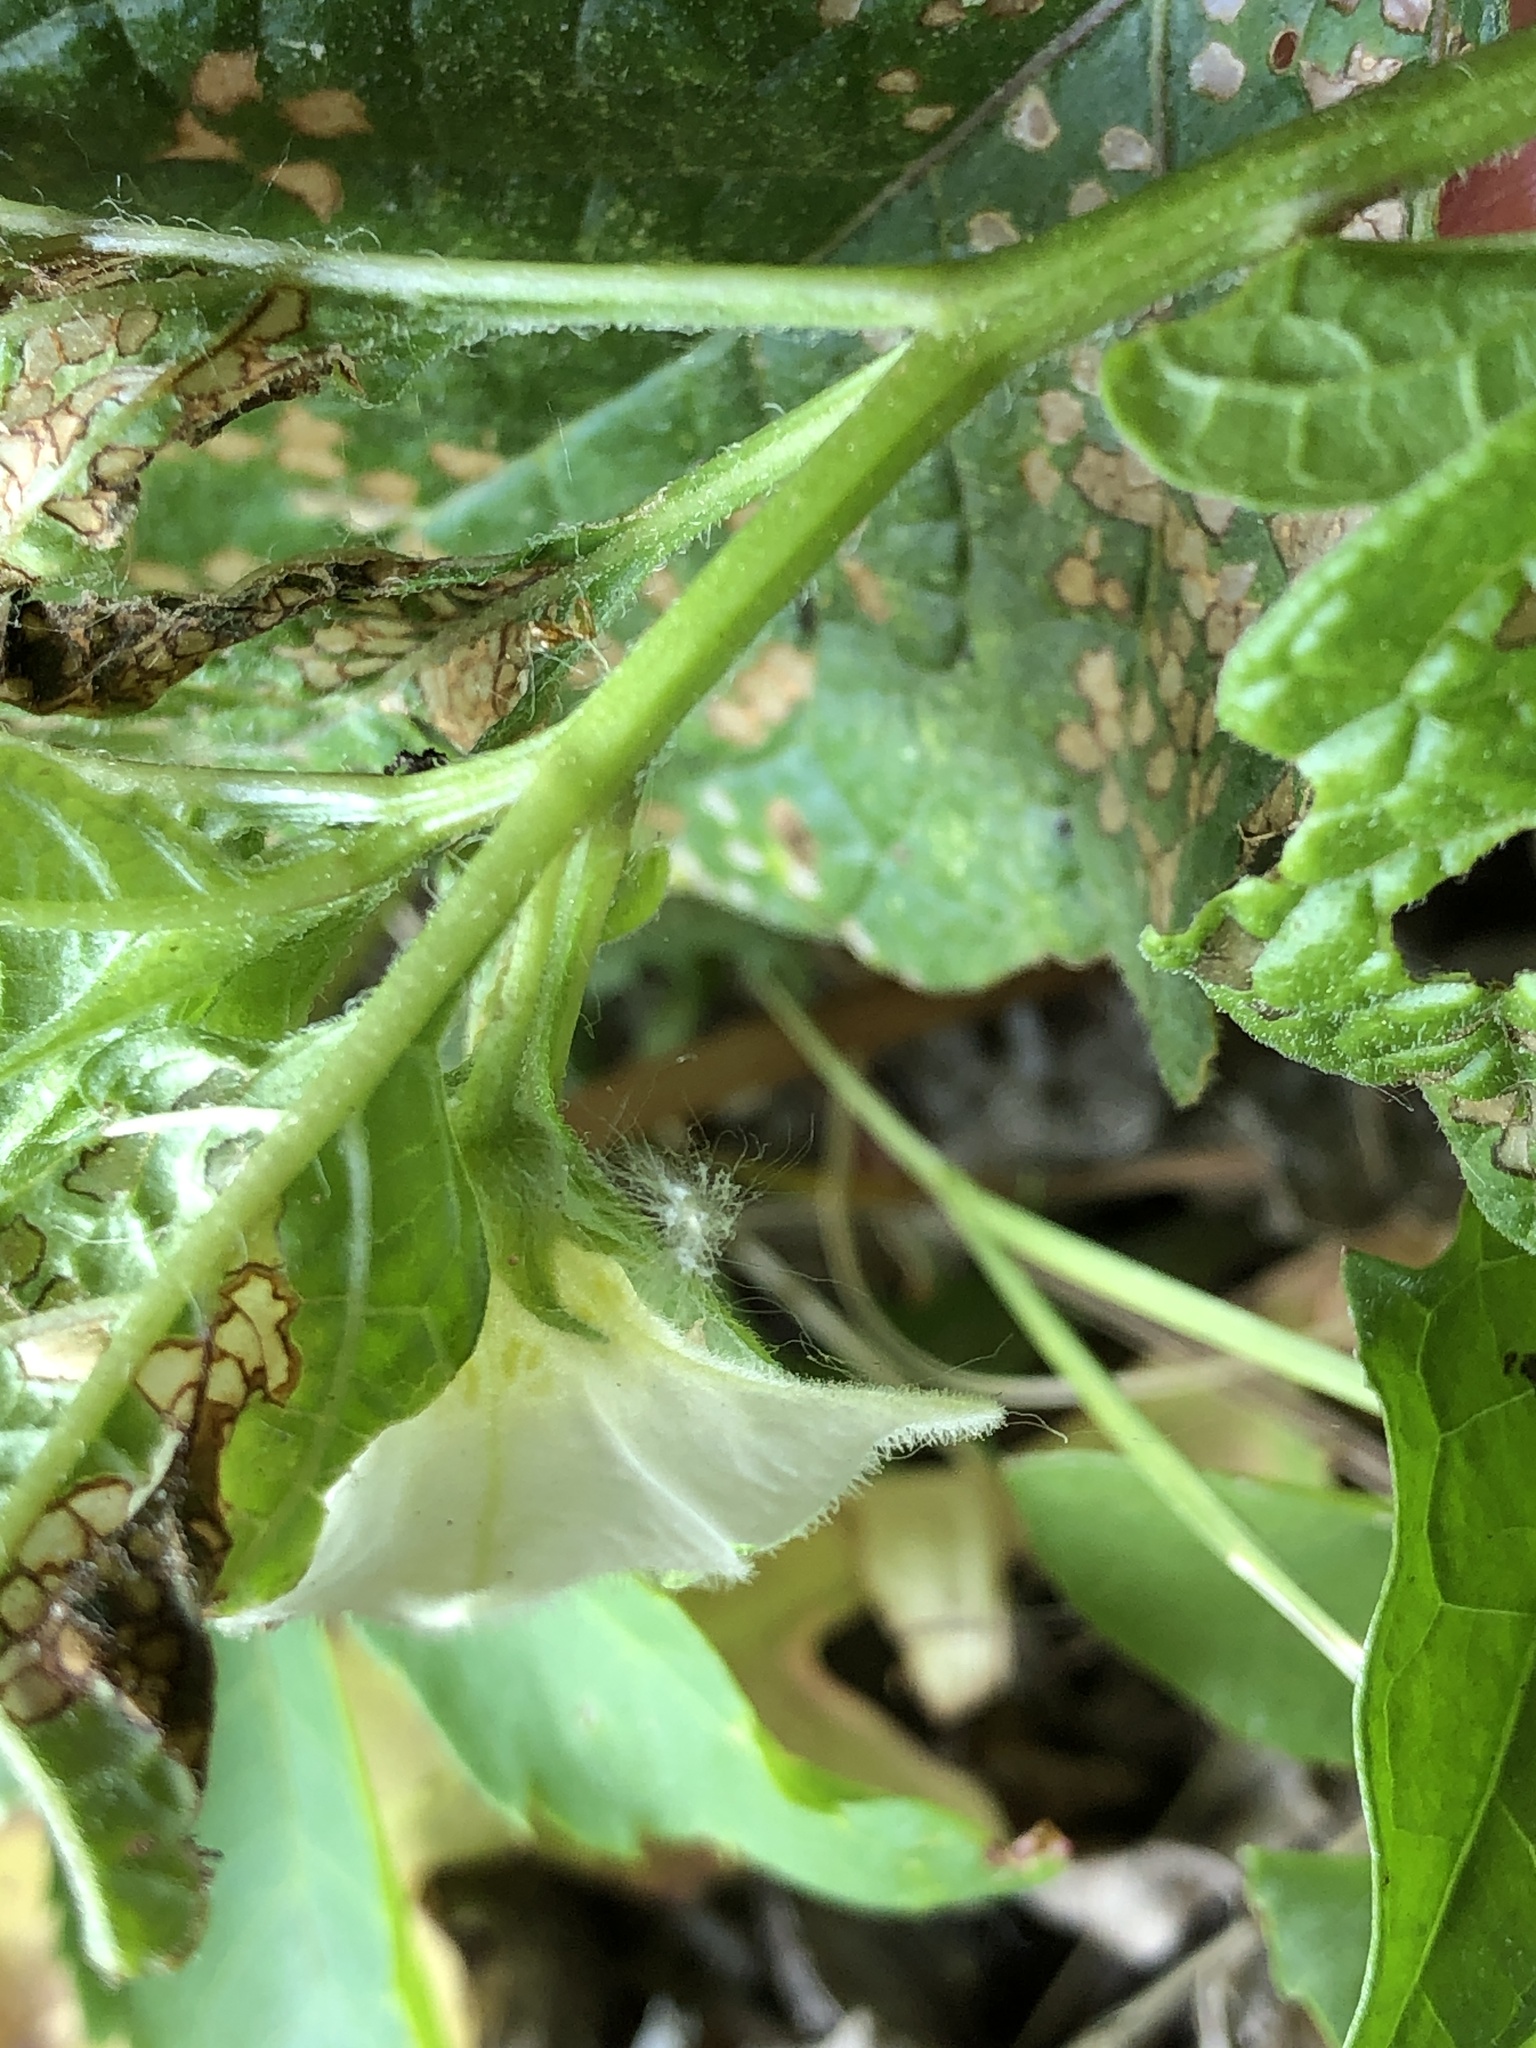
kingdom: Plantae
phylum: Tracheophyta
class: Magnoliopsida
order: Solanales
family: Solanaceae
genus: Alkekengi
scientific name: Alkekengi officinarum
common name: Japanese-lantern
